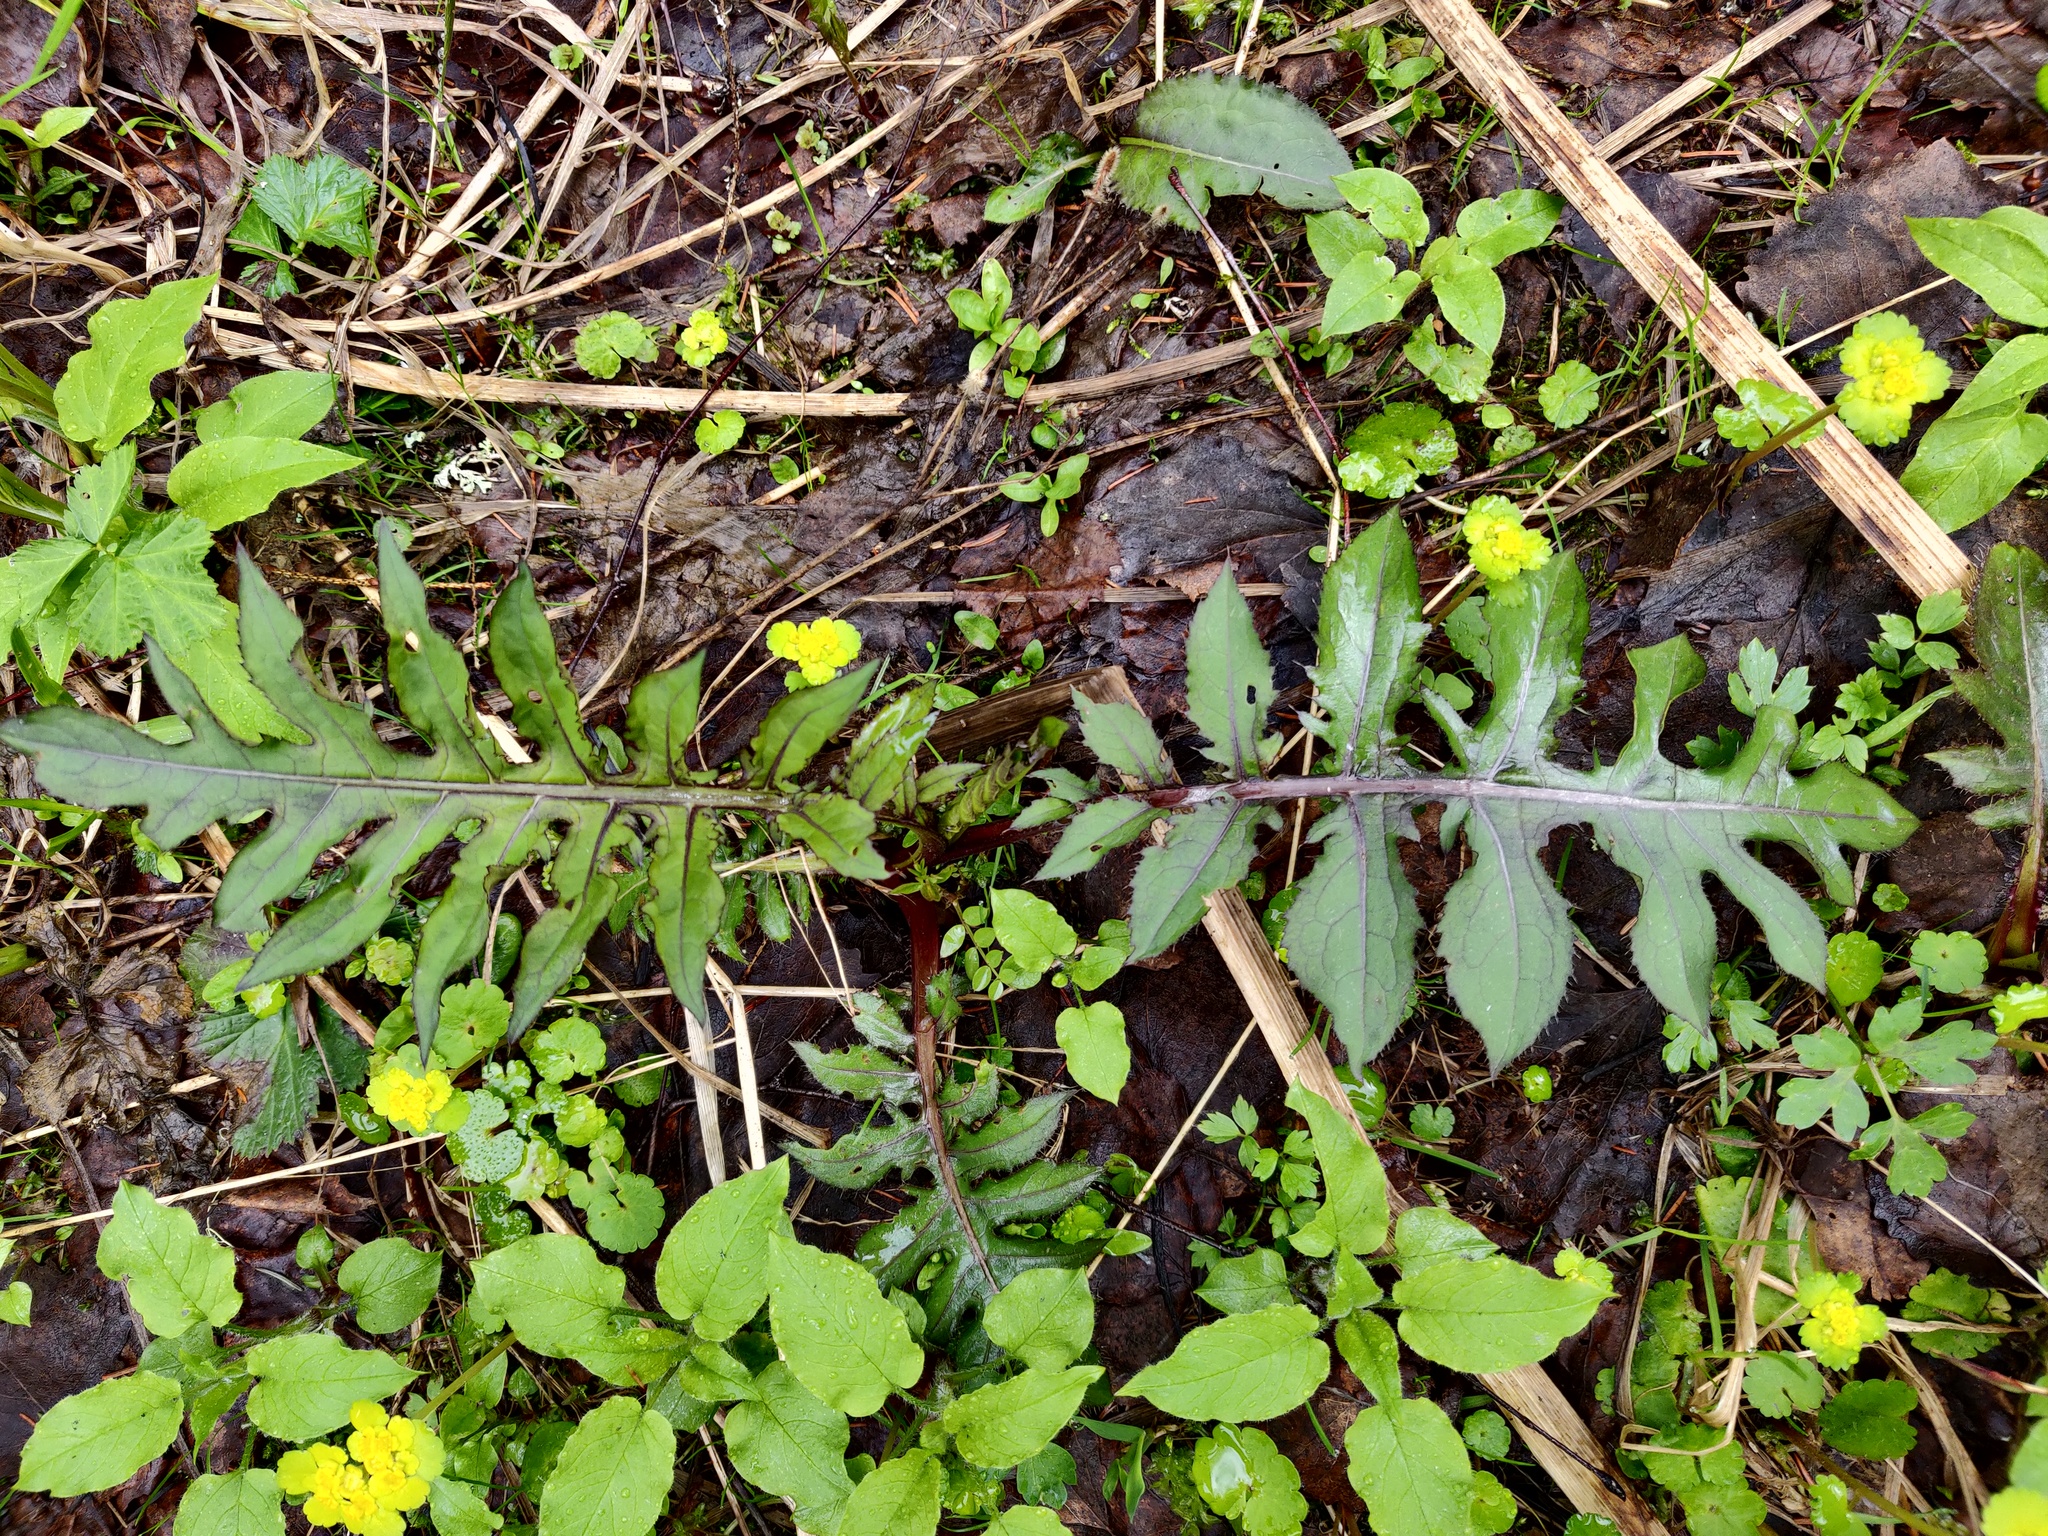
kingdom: Plantae
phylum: Tracheophyta
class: Magnoliopsida
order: Asterales
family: Asteraceae
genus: Cirsium
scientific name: Cirsium oleraceum
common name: Cabbage thistle
